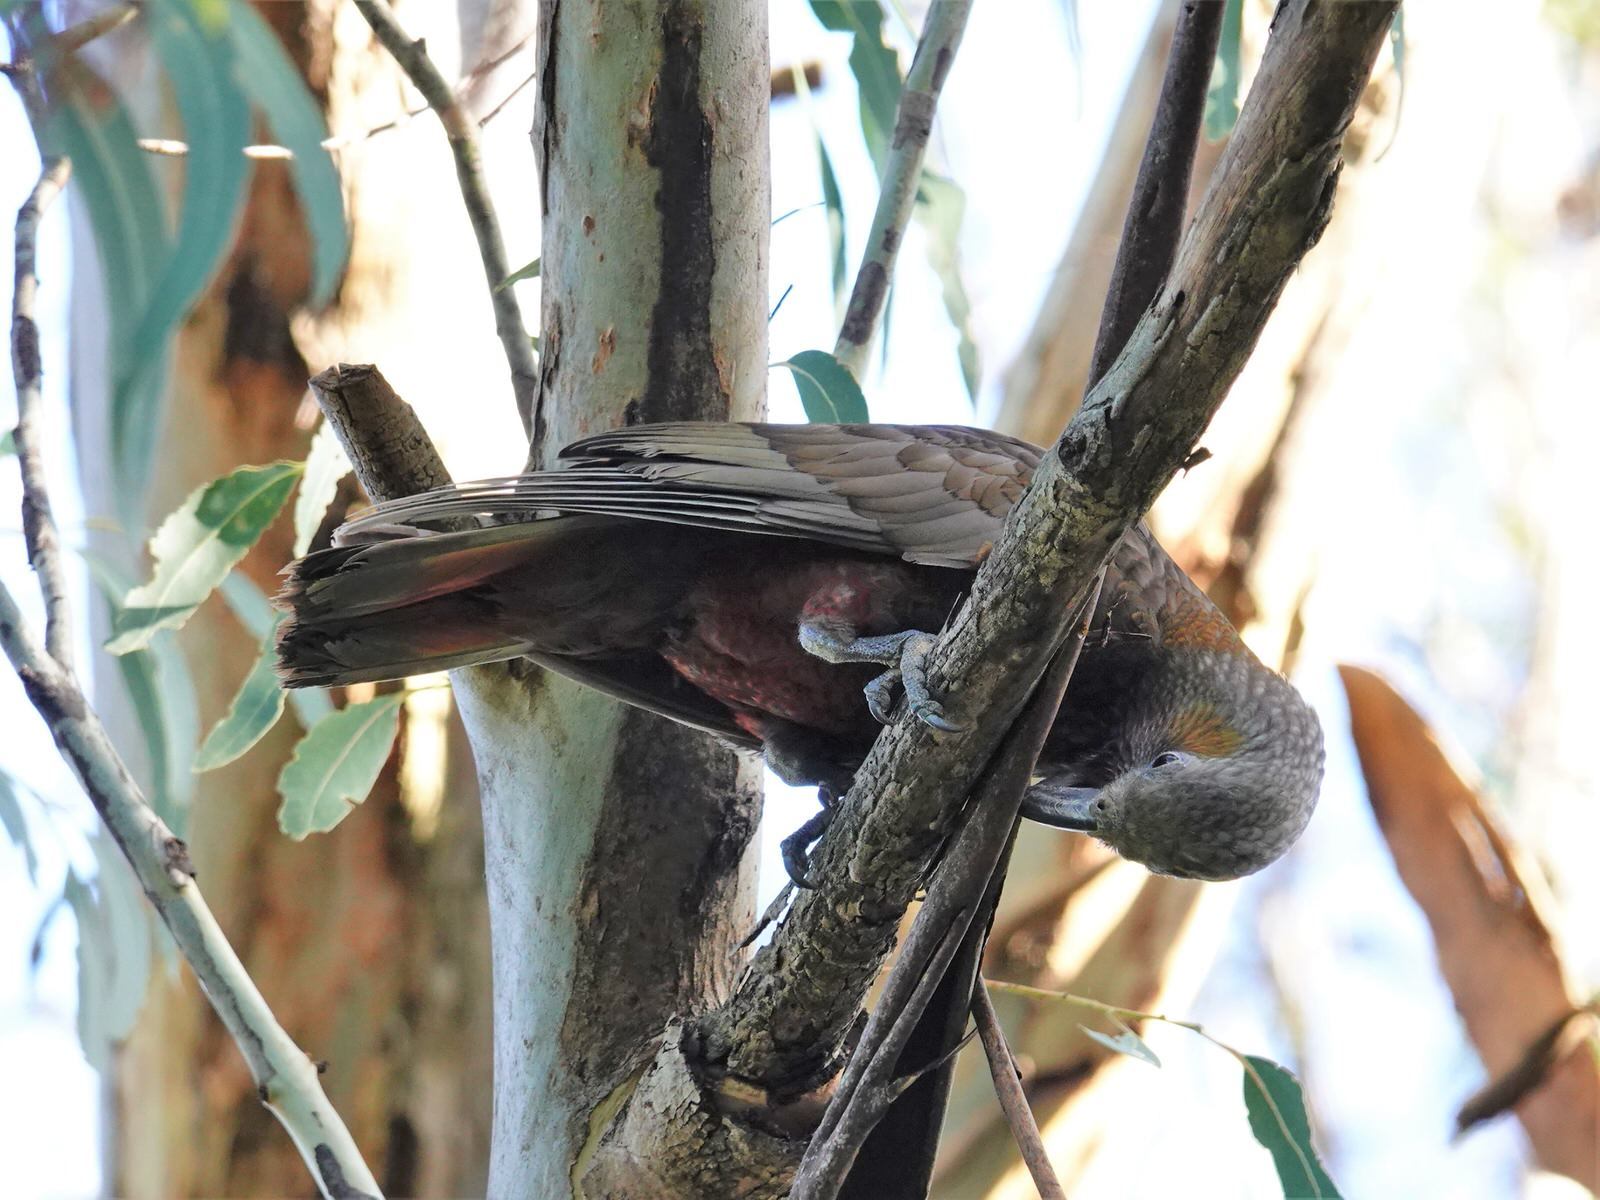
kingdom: Animalia
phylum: Chordata
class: Aves
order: Psittaciformes
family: Psittacidae
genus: Nestor
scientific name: Nestor meridionalis
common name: New zealand kaka
